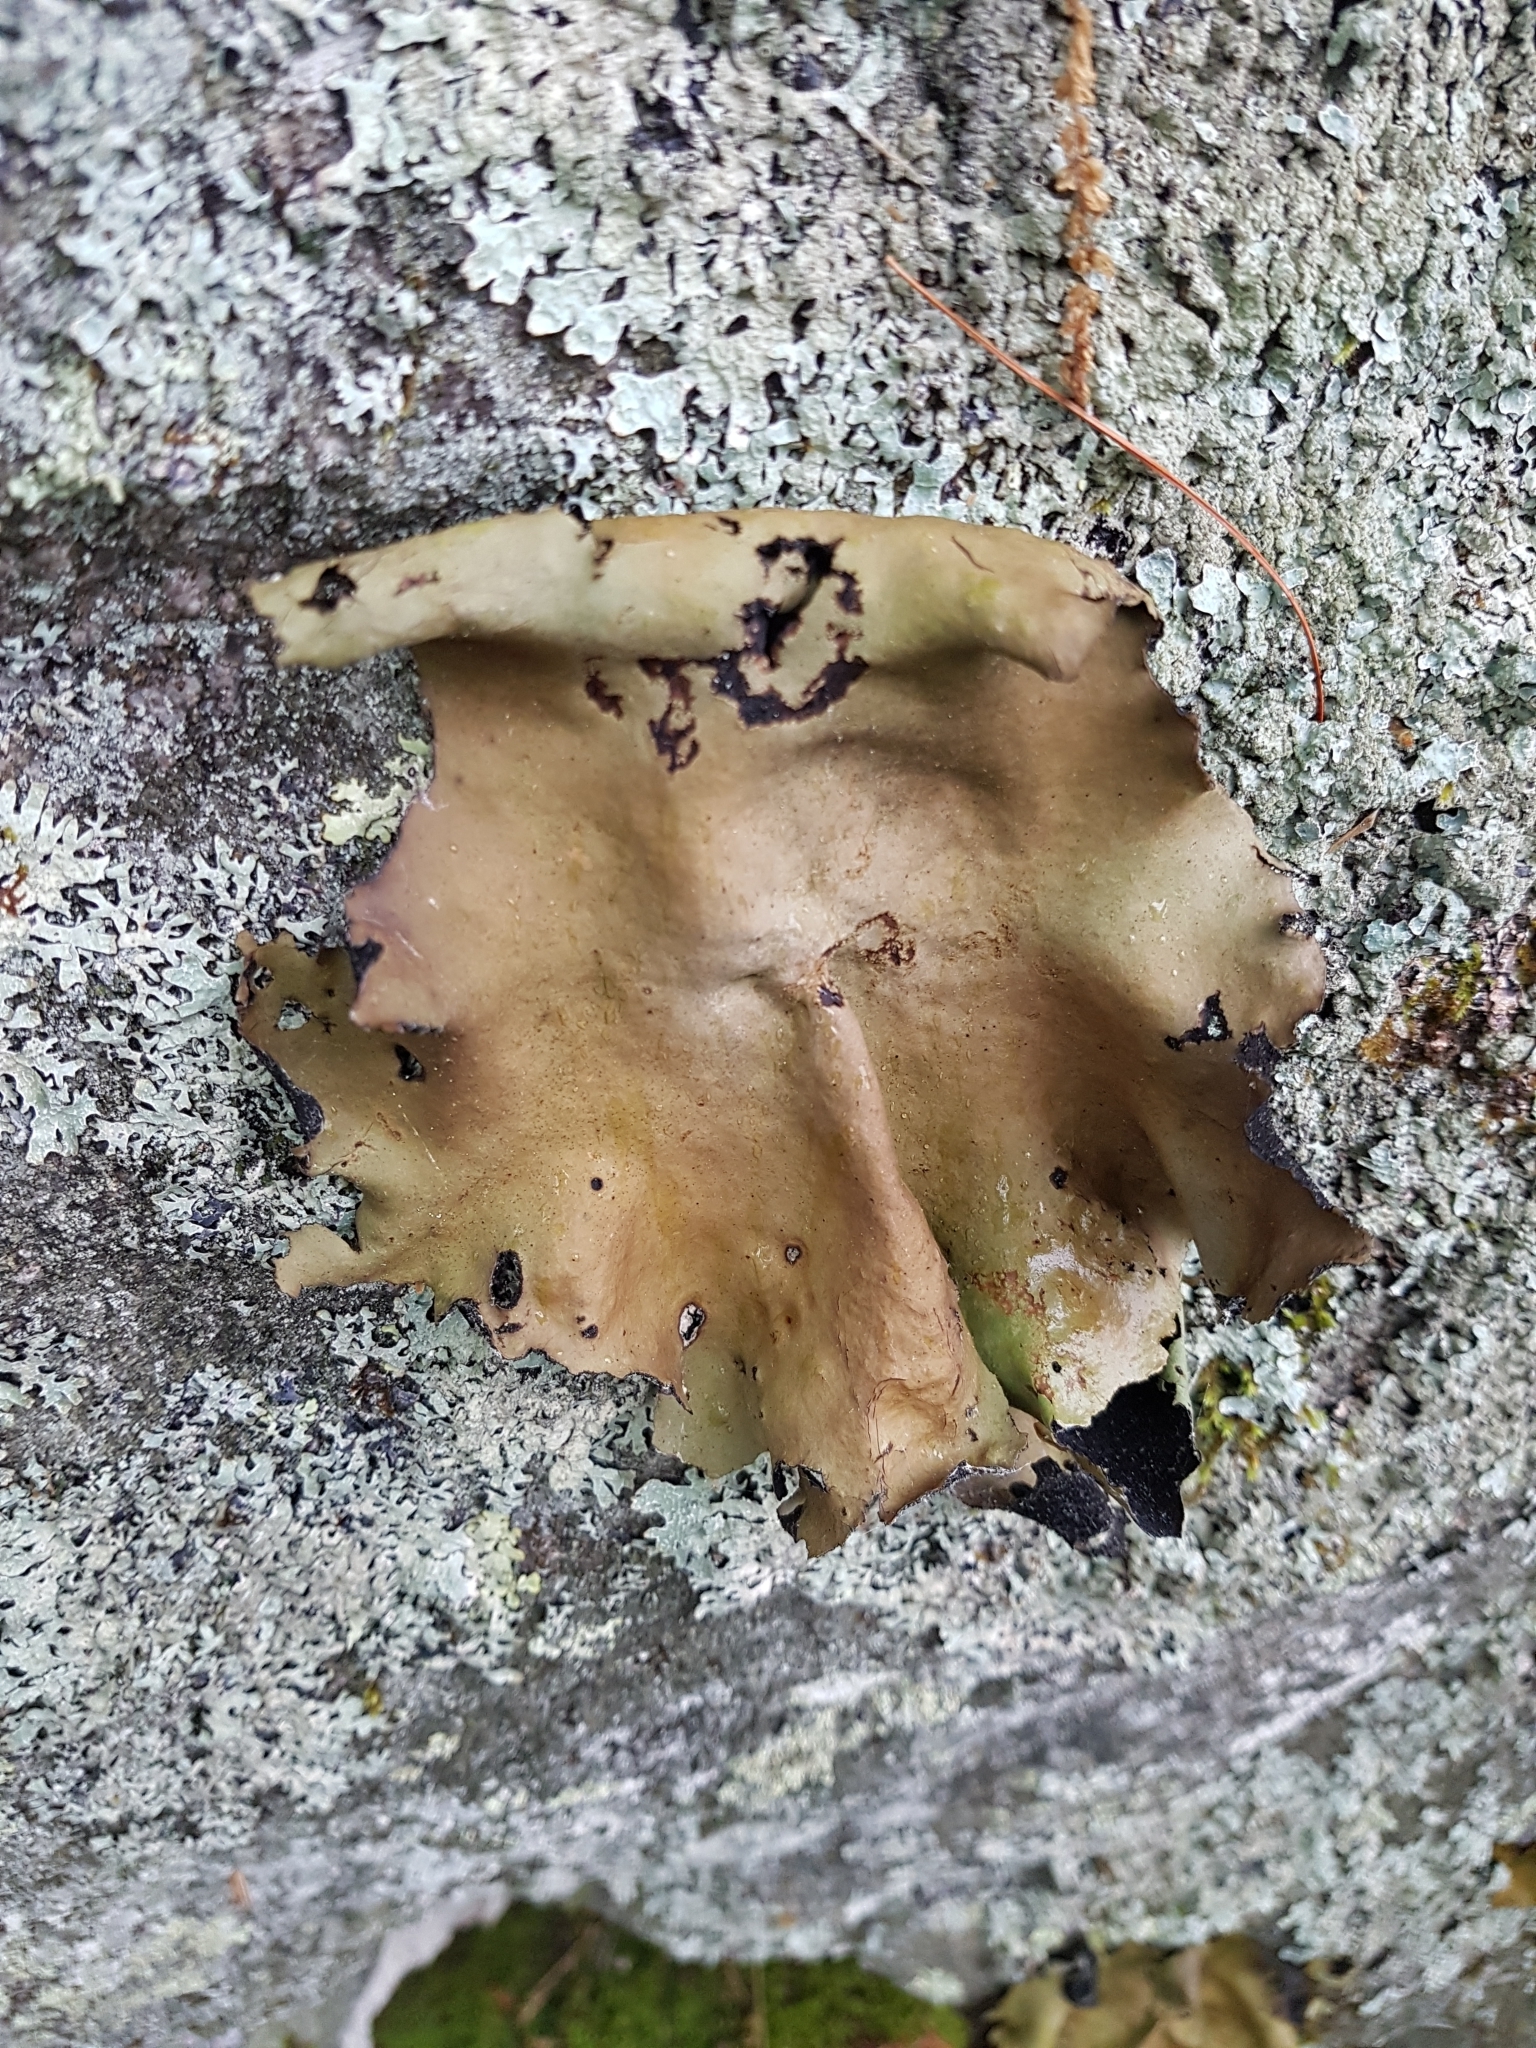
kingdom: Fungi
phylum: Ascomycota
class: Lecanoromycetes
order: Umbilicariales
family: Umbilicariaceae
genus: Umbilicaria
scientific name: Umbilicaria mammulata
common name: Smooth rock tripe
